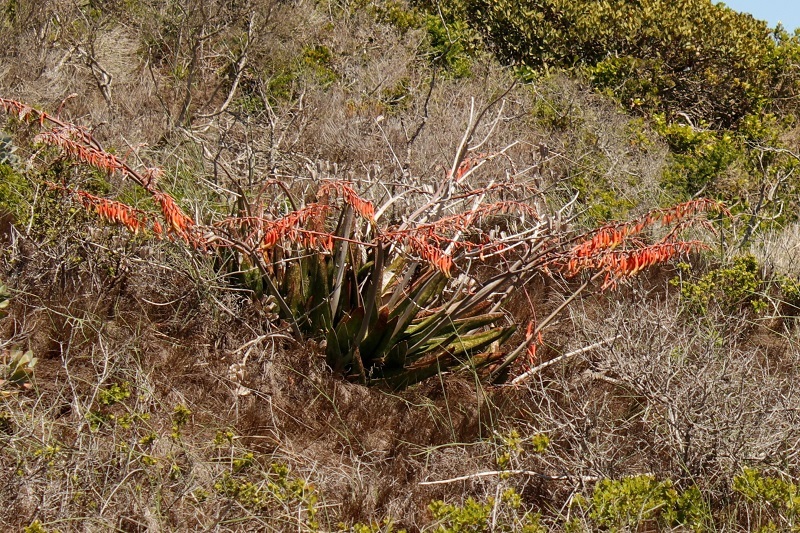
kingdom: Plantae
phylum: Tracheophyta
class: Liliopsida
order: Asparagales
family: Asphodelaceae
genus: Gasteria
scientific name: Gasteria acinacifolia
